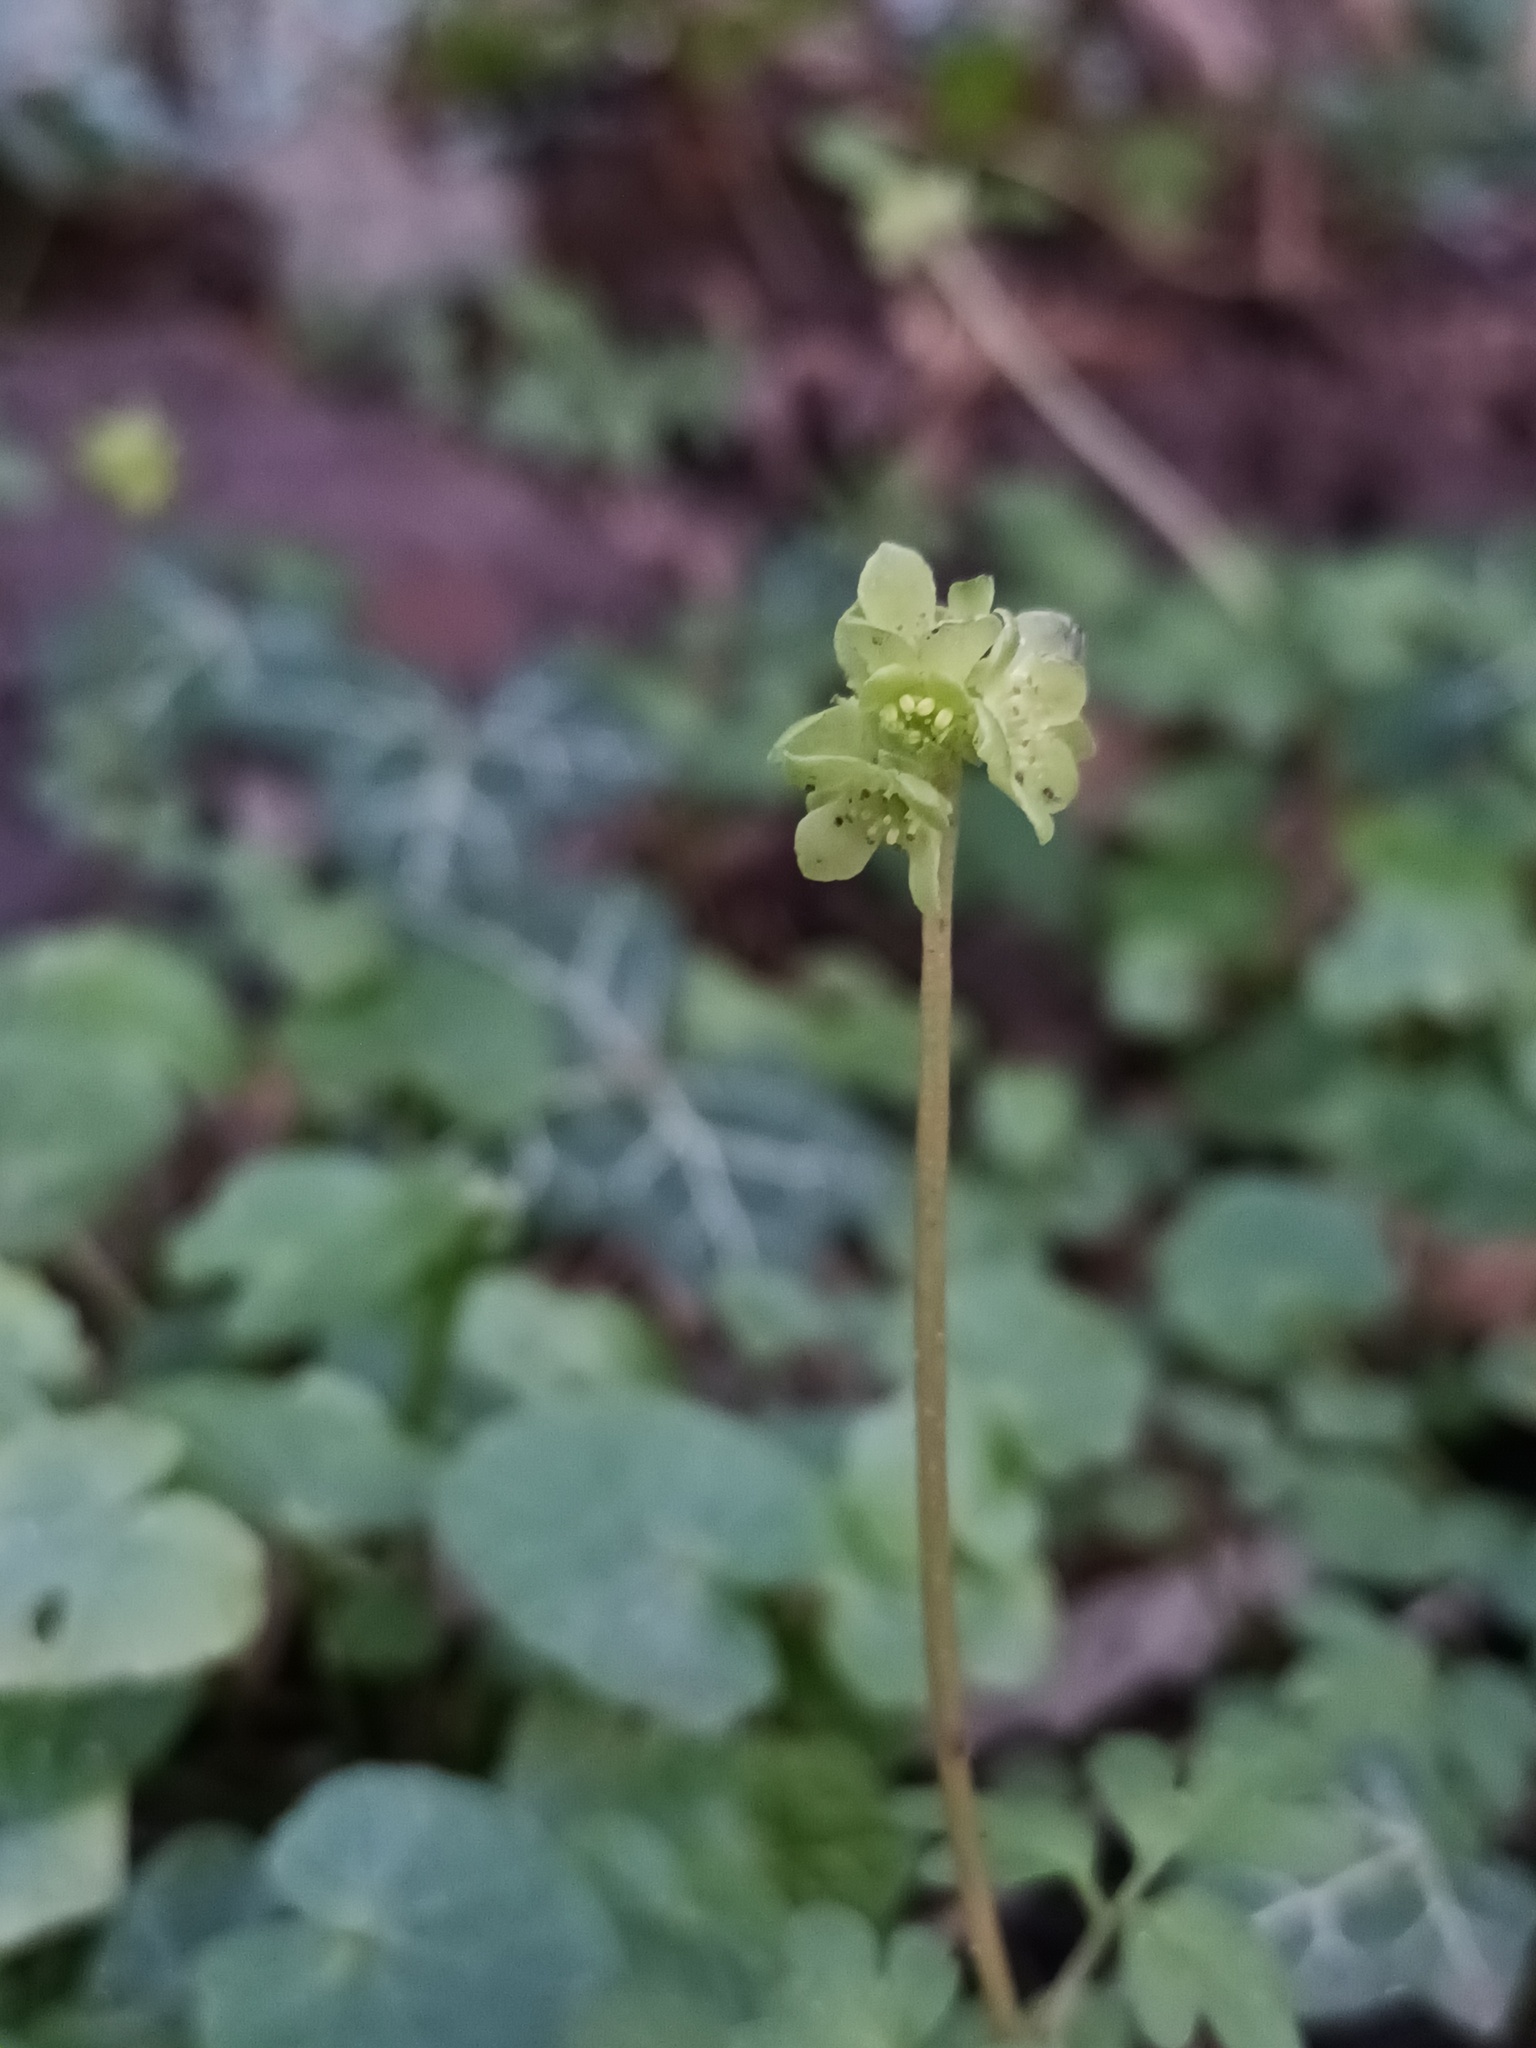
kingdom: Plantae
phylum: Tracheophyta
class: Magnoliopsida
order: Dipsacales
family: Viburnaceae
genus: Adoxa
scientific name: Adoxa moschatellina
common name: Moschatel
